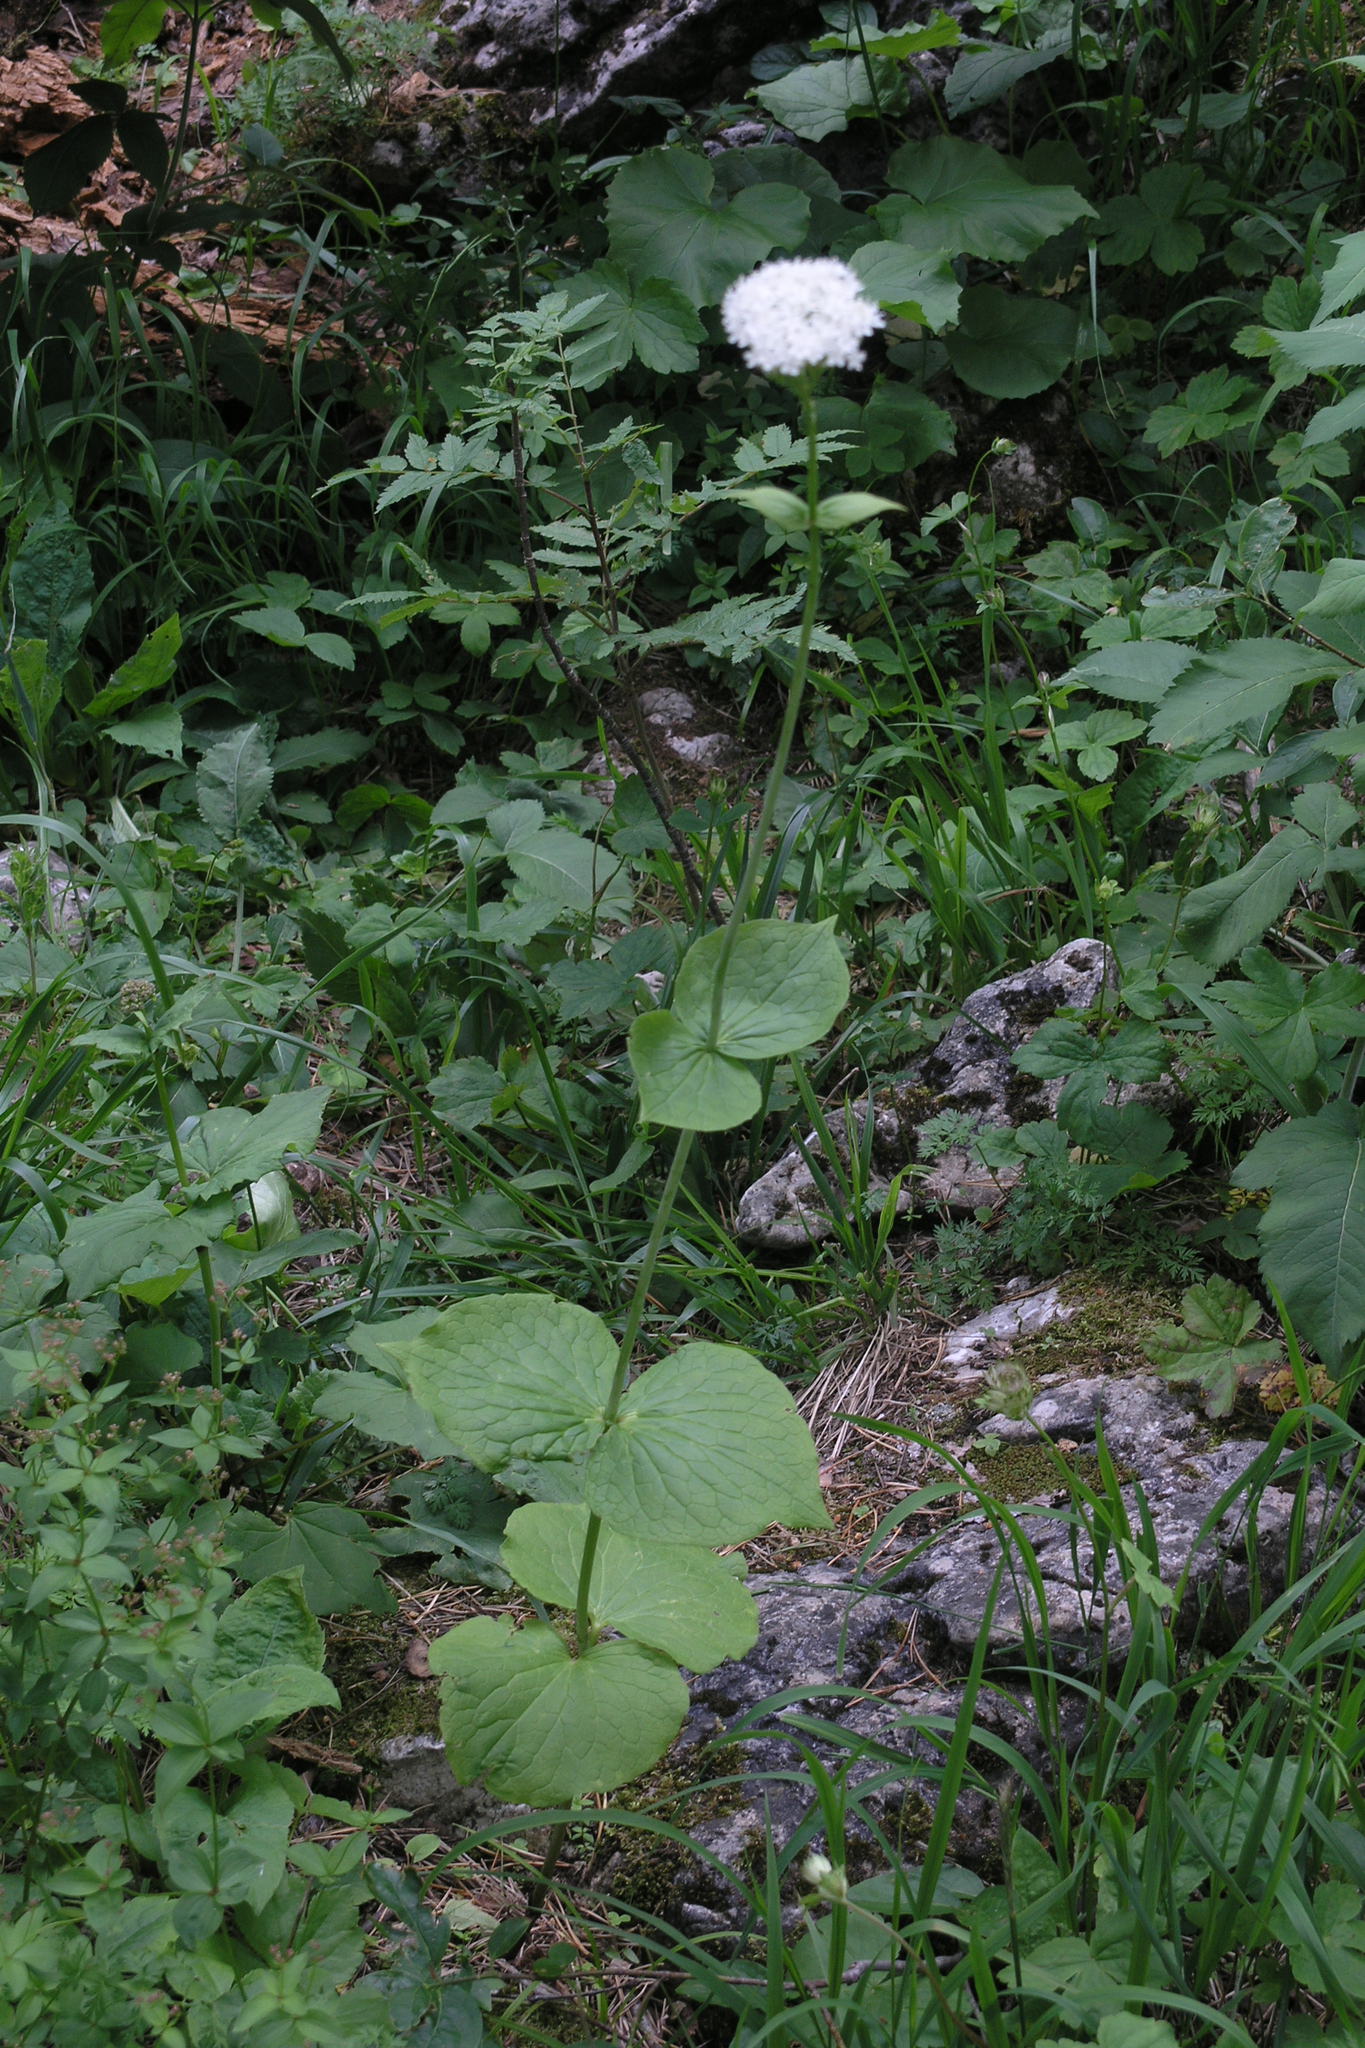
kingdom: Plantae
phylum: Tracheophyta
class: Magnoliopsida
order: Dipsacales
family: Caprifoliaceae
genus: Valeriana
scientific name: Valeriana alliariifolia
